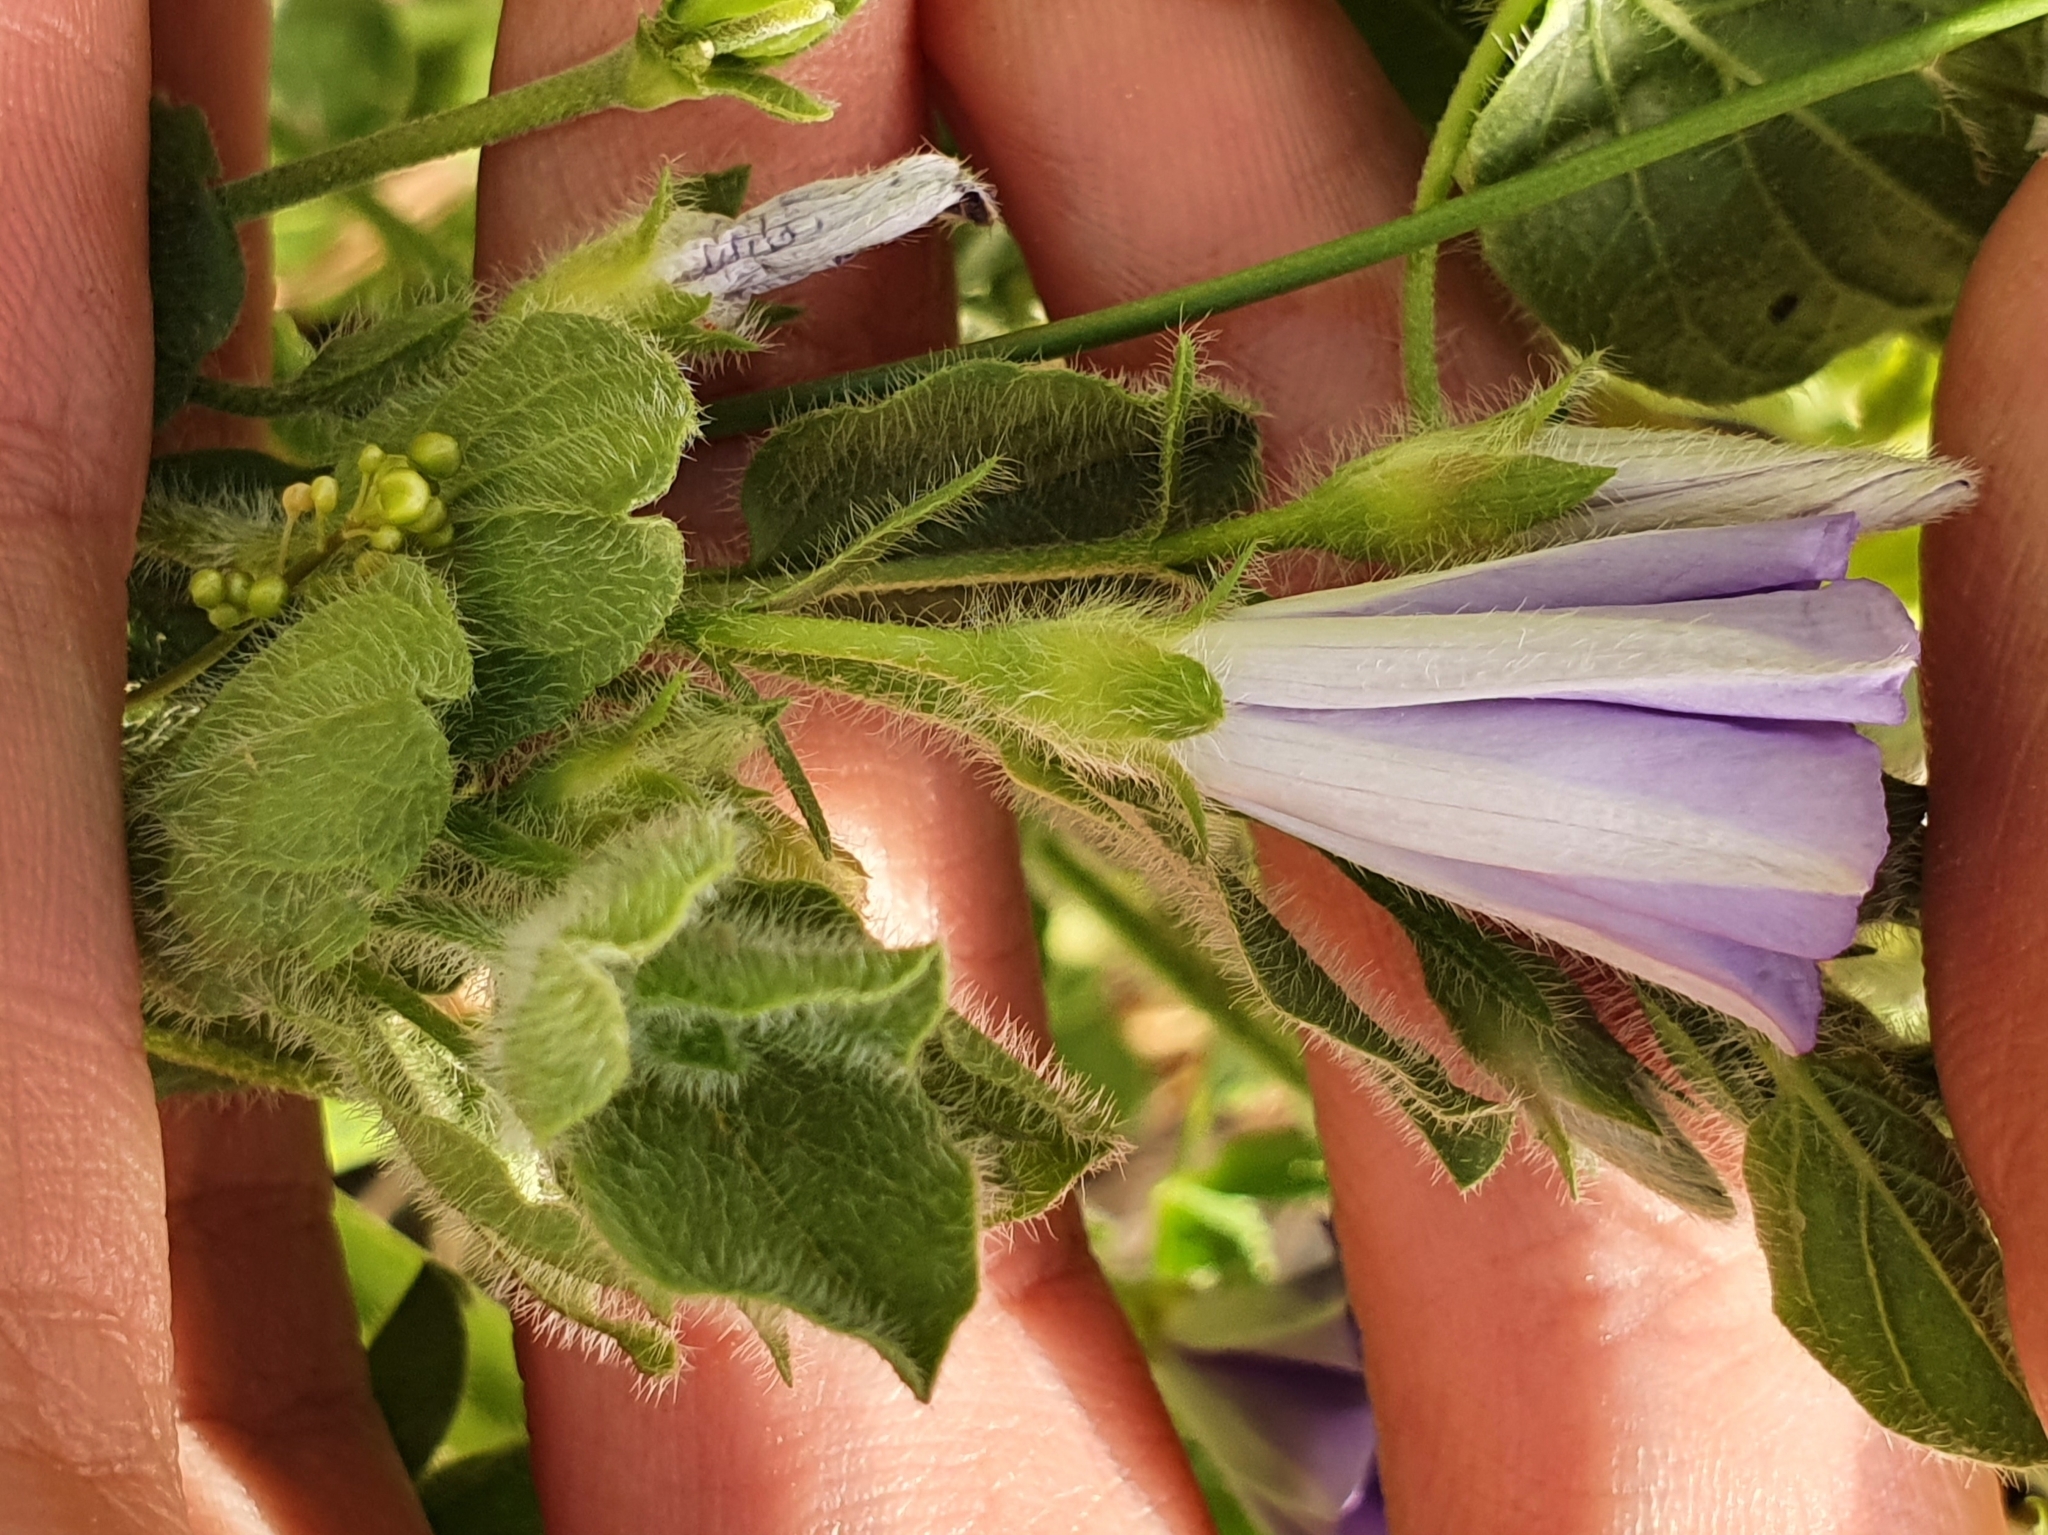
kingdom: Plantae
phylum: Tracheophyta
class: Magnoliopsida
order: Solanales
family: Convolvulaceae
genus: Convolvulus
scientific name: Convolvulus sabatius
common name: Ground blue-convolvulus
